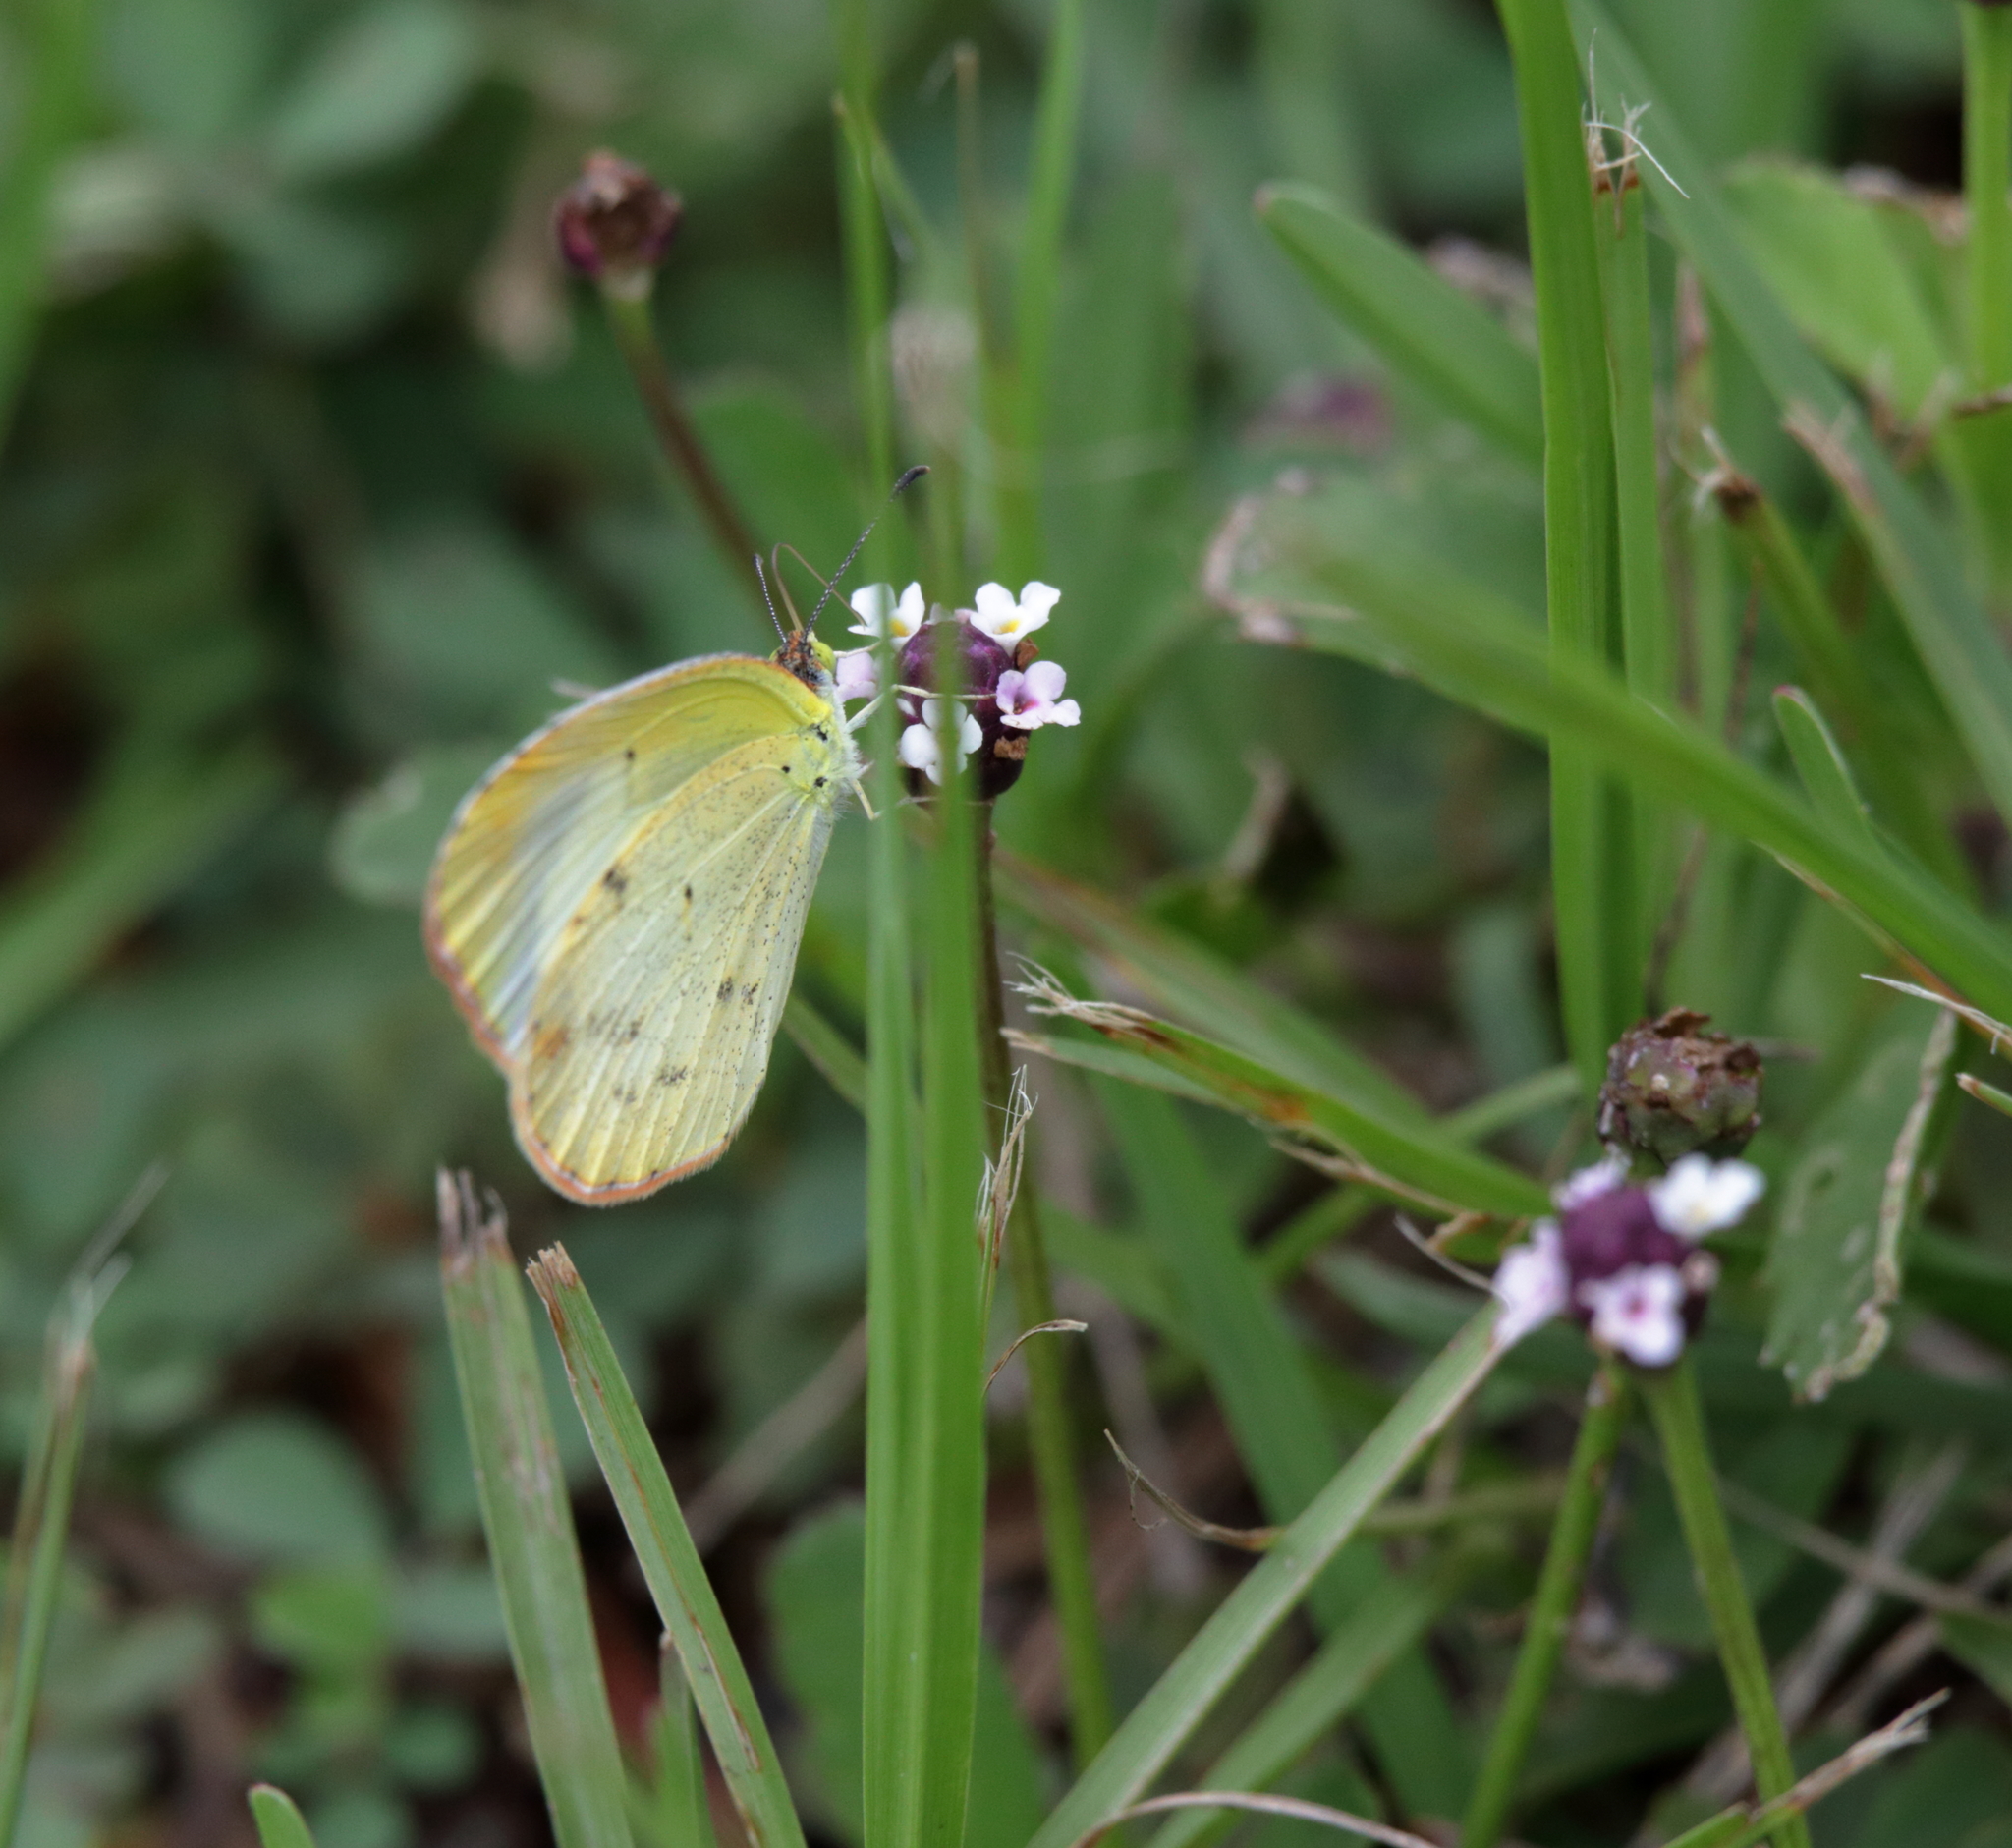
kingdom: Animalia
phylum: Arthropoda
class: Insecta
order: Lepidoptera
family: Pieridae
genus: Pyrisitia
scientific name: Pyrisitia lisa
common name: Little yellow
